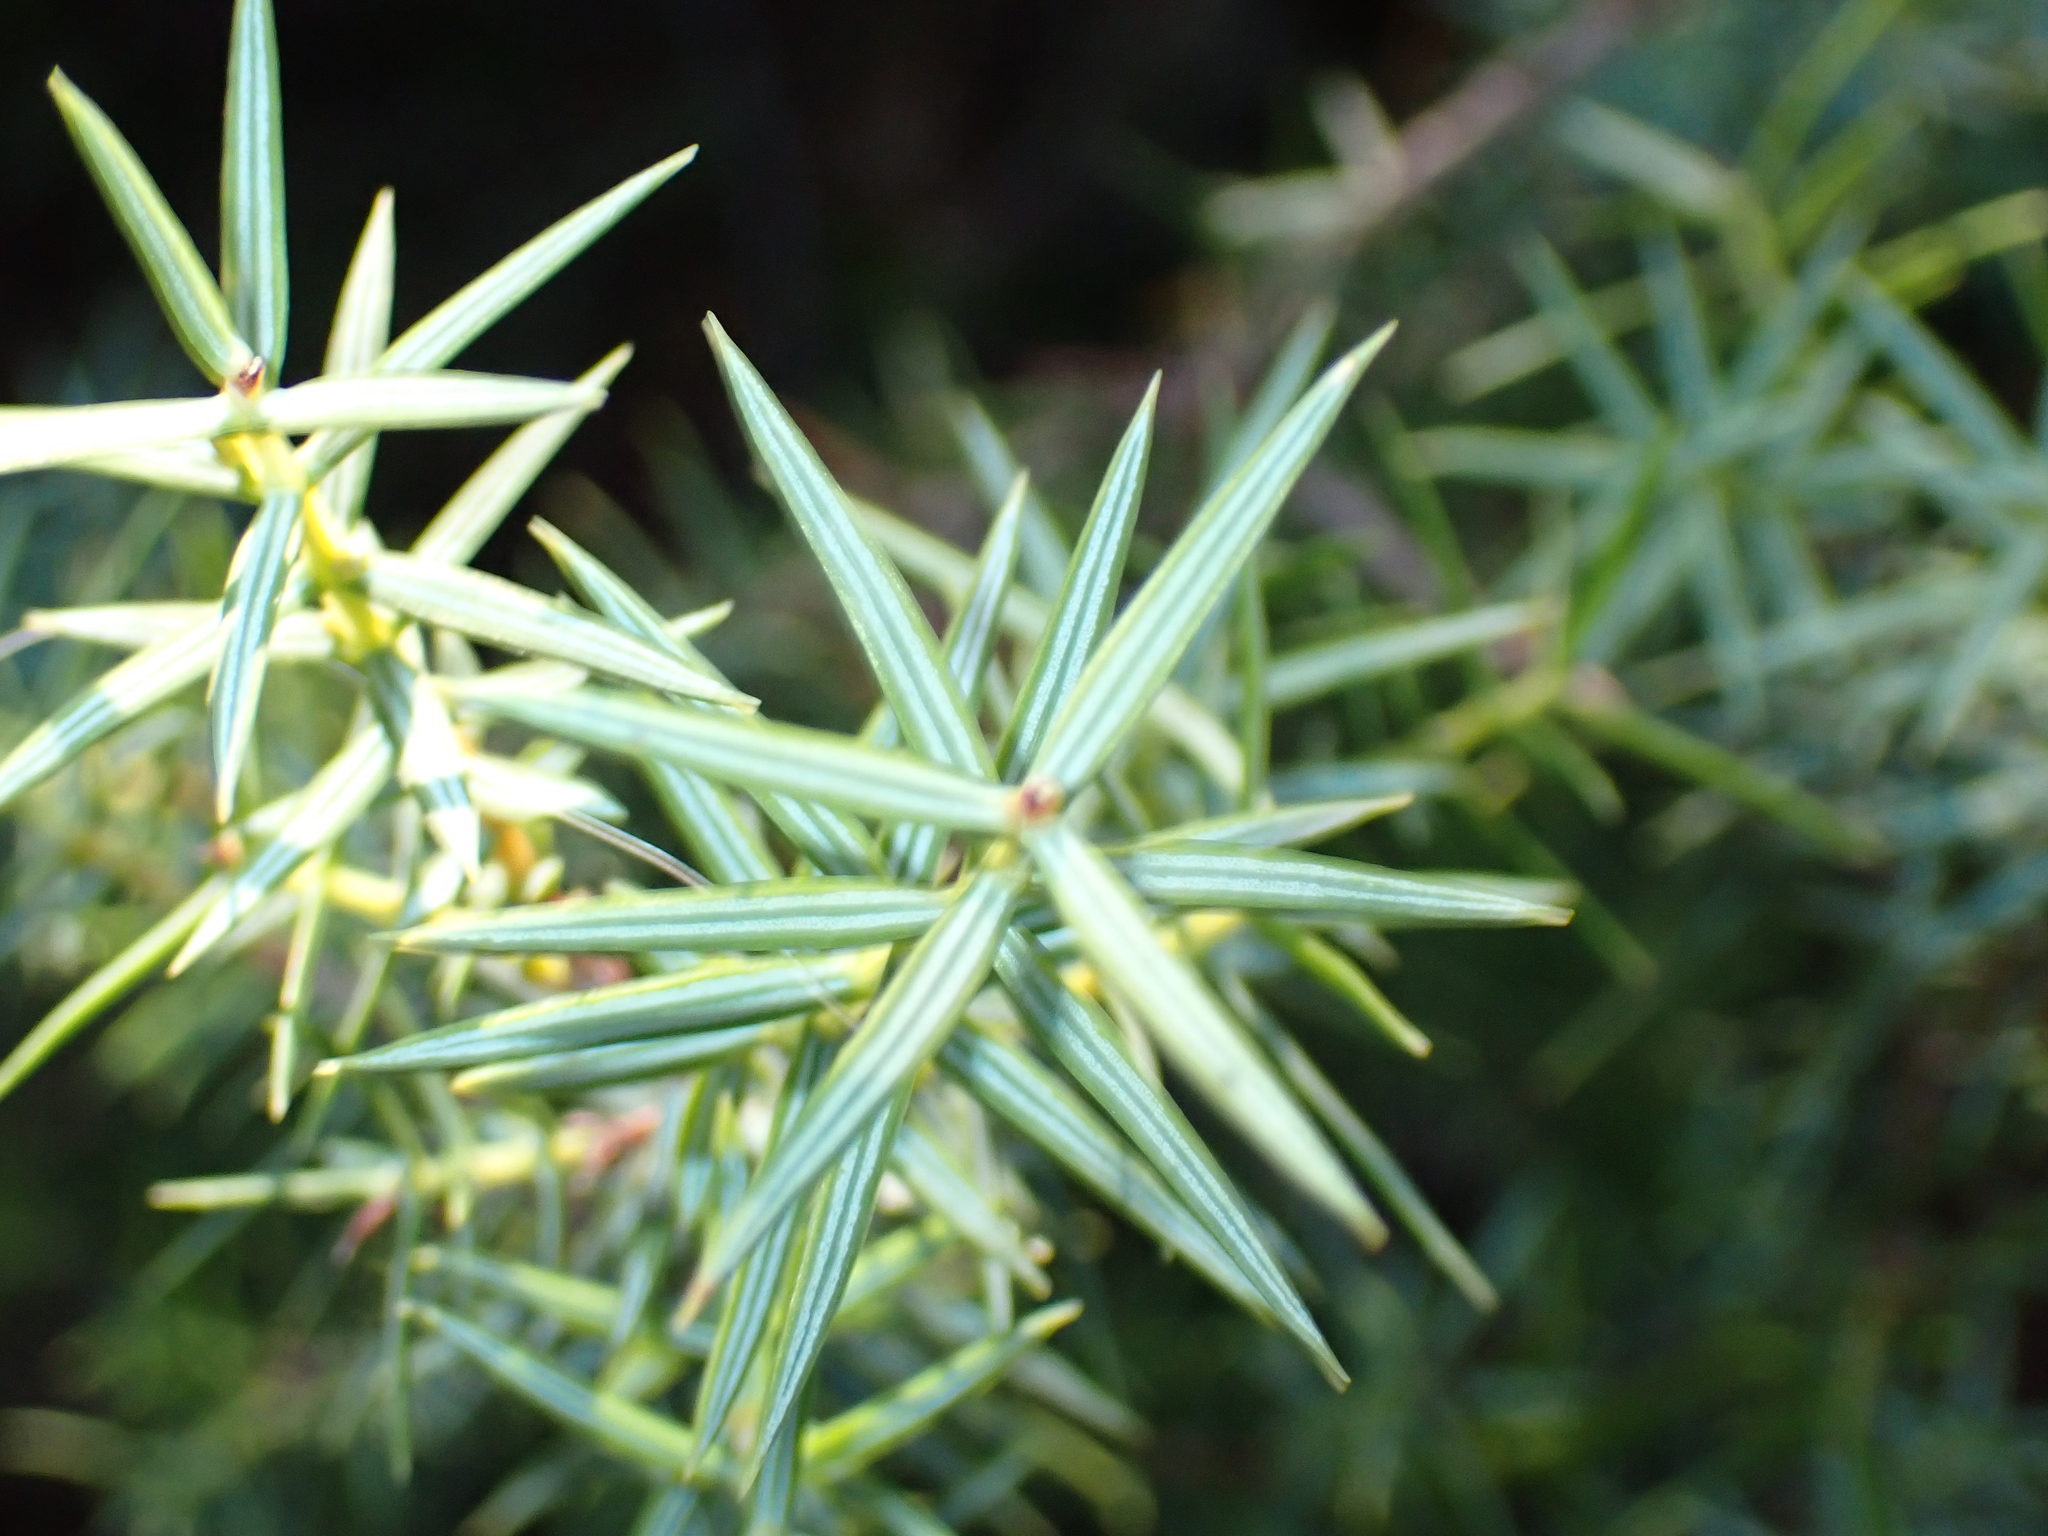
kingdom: Plantae
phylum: Tracheophyta
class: Pinopsida
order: Pinales
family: Cupressaceae
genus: Juniperus
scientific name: Juniperus oxycedrus
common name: Prickly juniper
